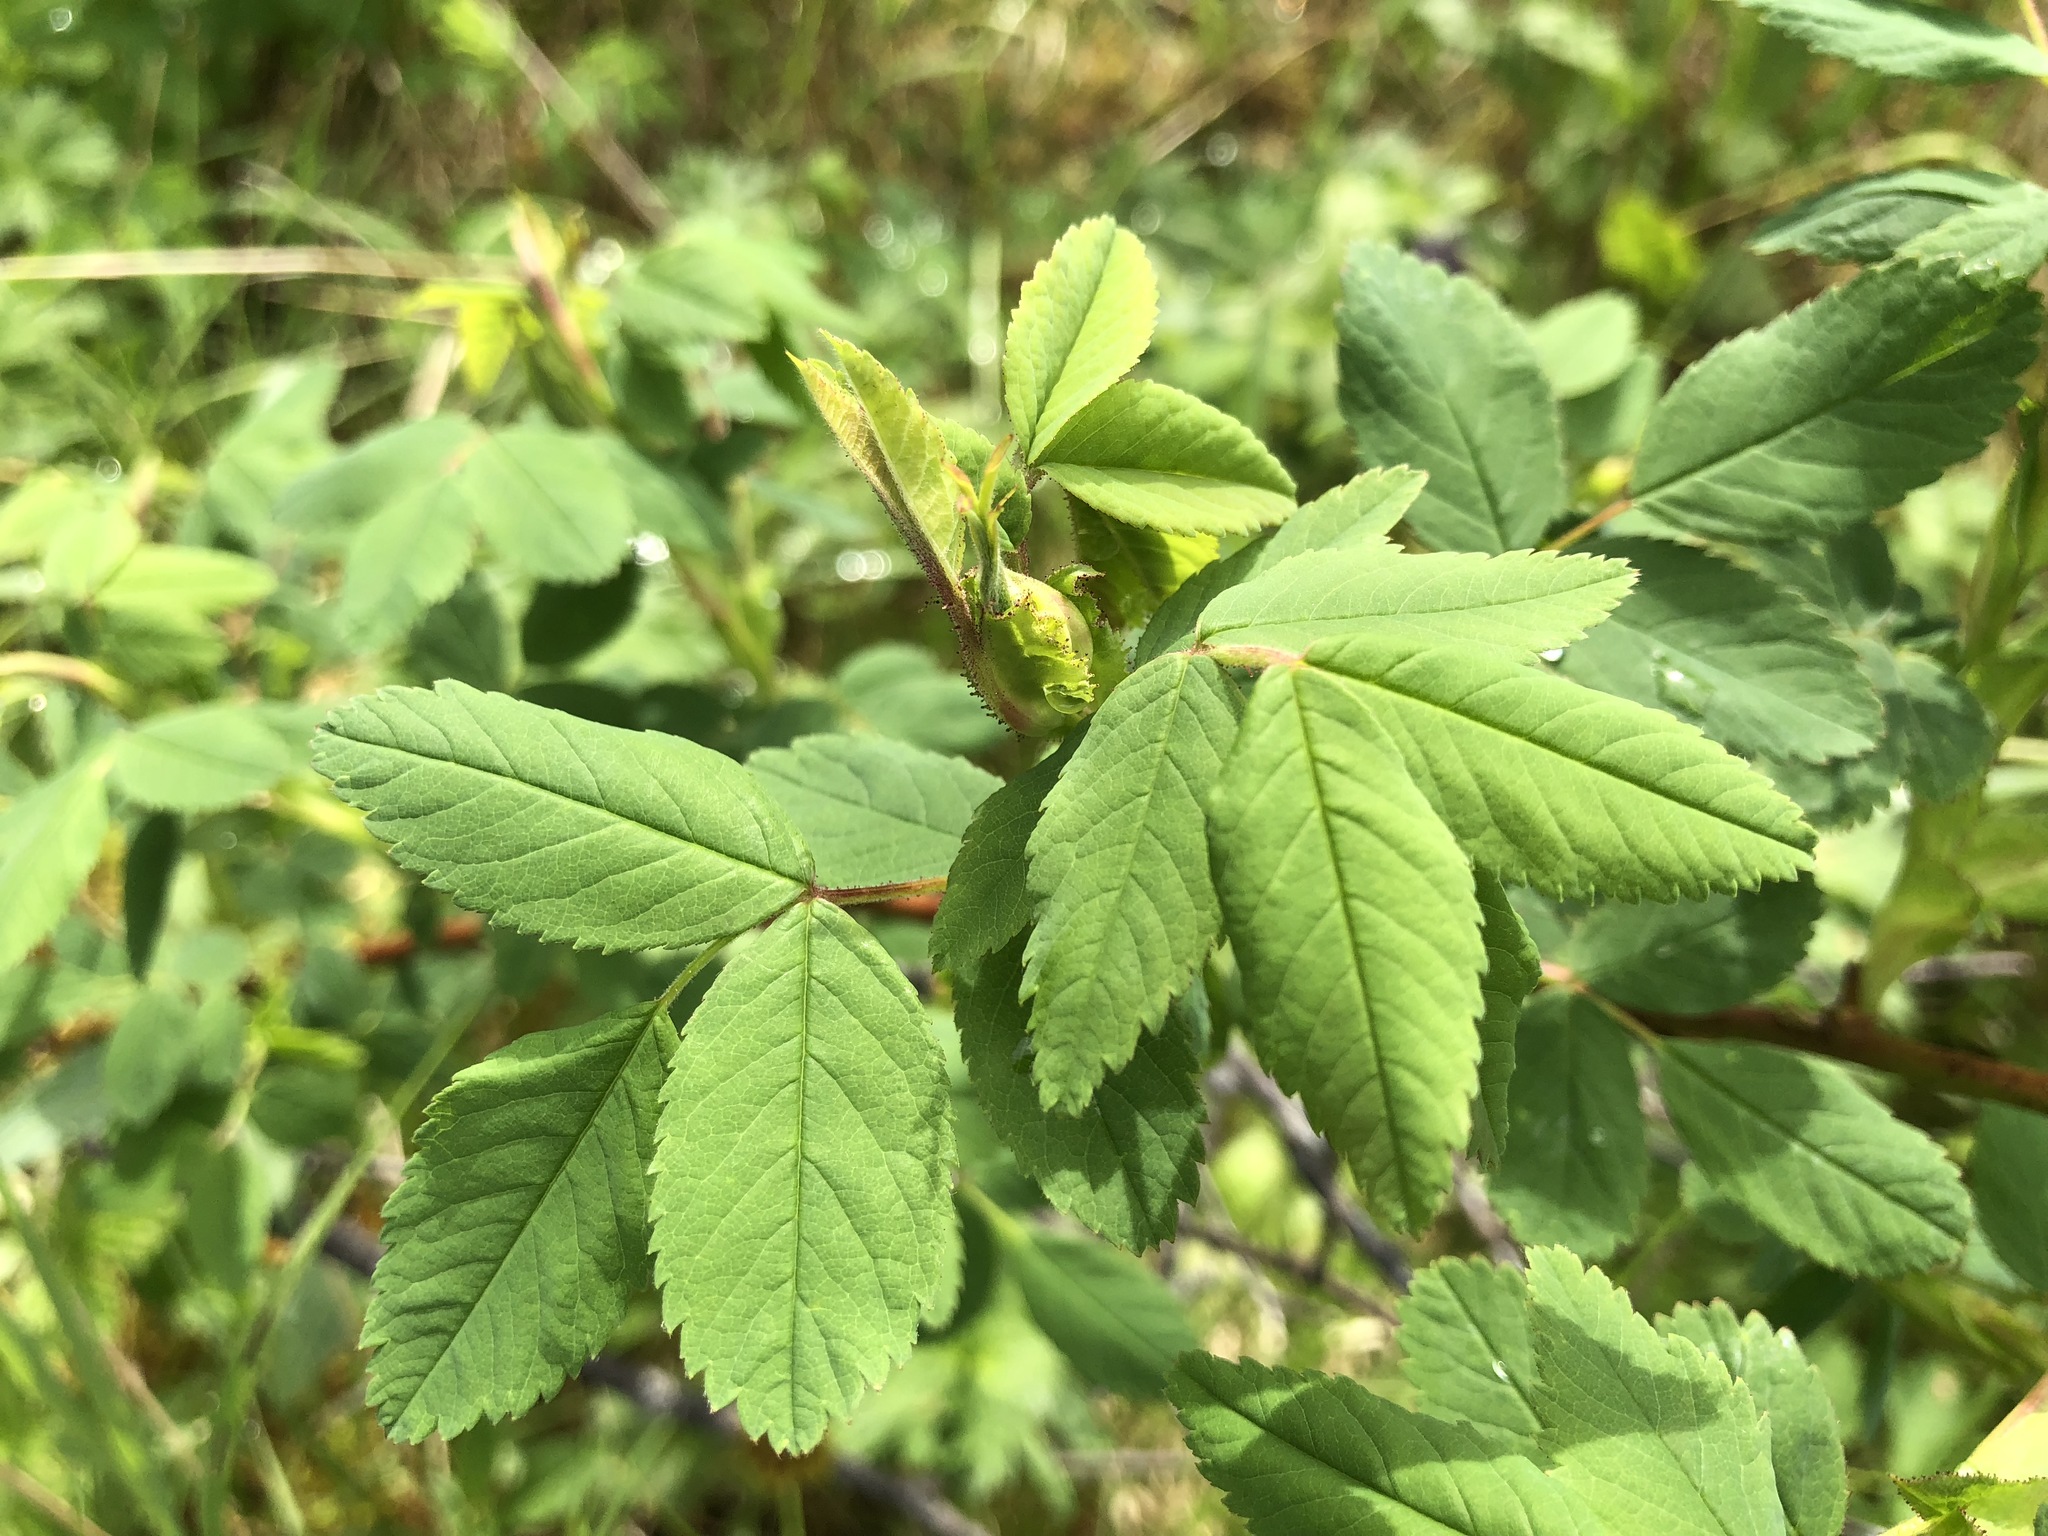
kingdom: Plantae
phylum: Tracheophyta
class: Magnoliopsida
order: Rosales
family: Rosaceae
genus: Rosa
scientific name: Rosa nutkana
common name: Nootka rose
